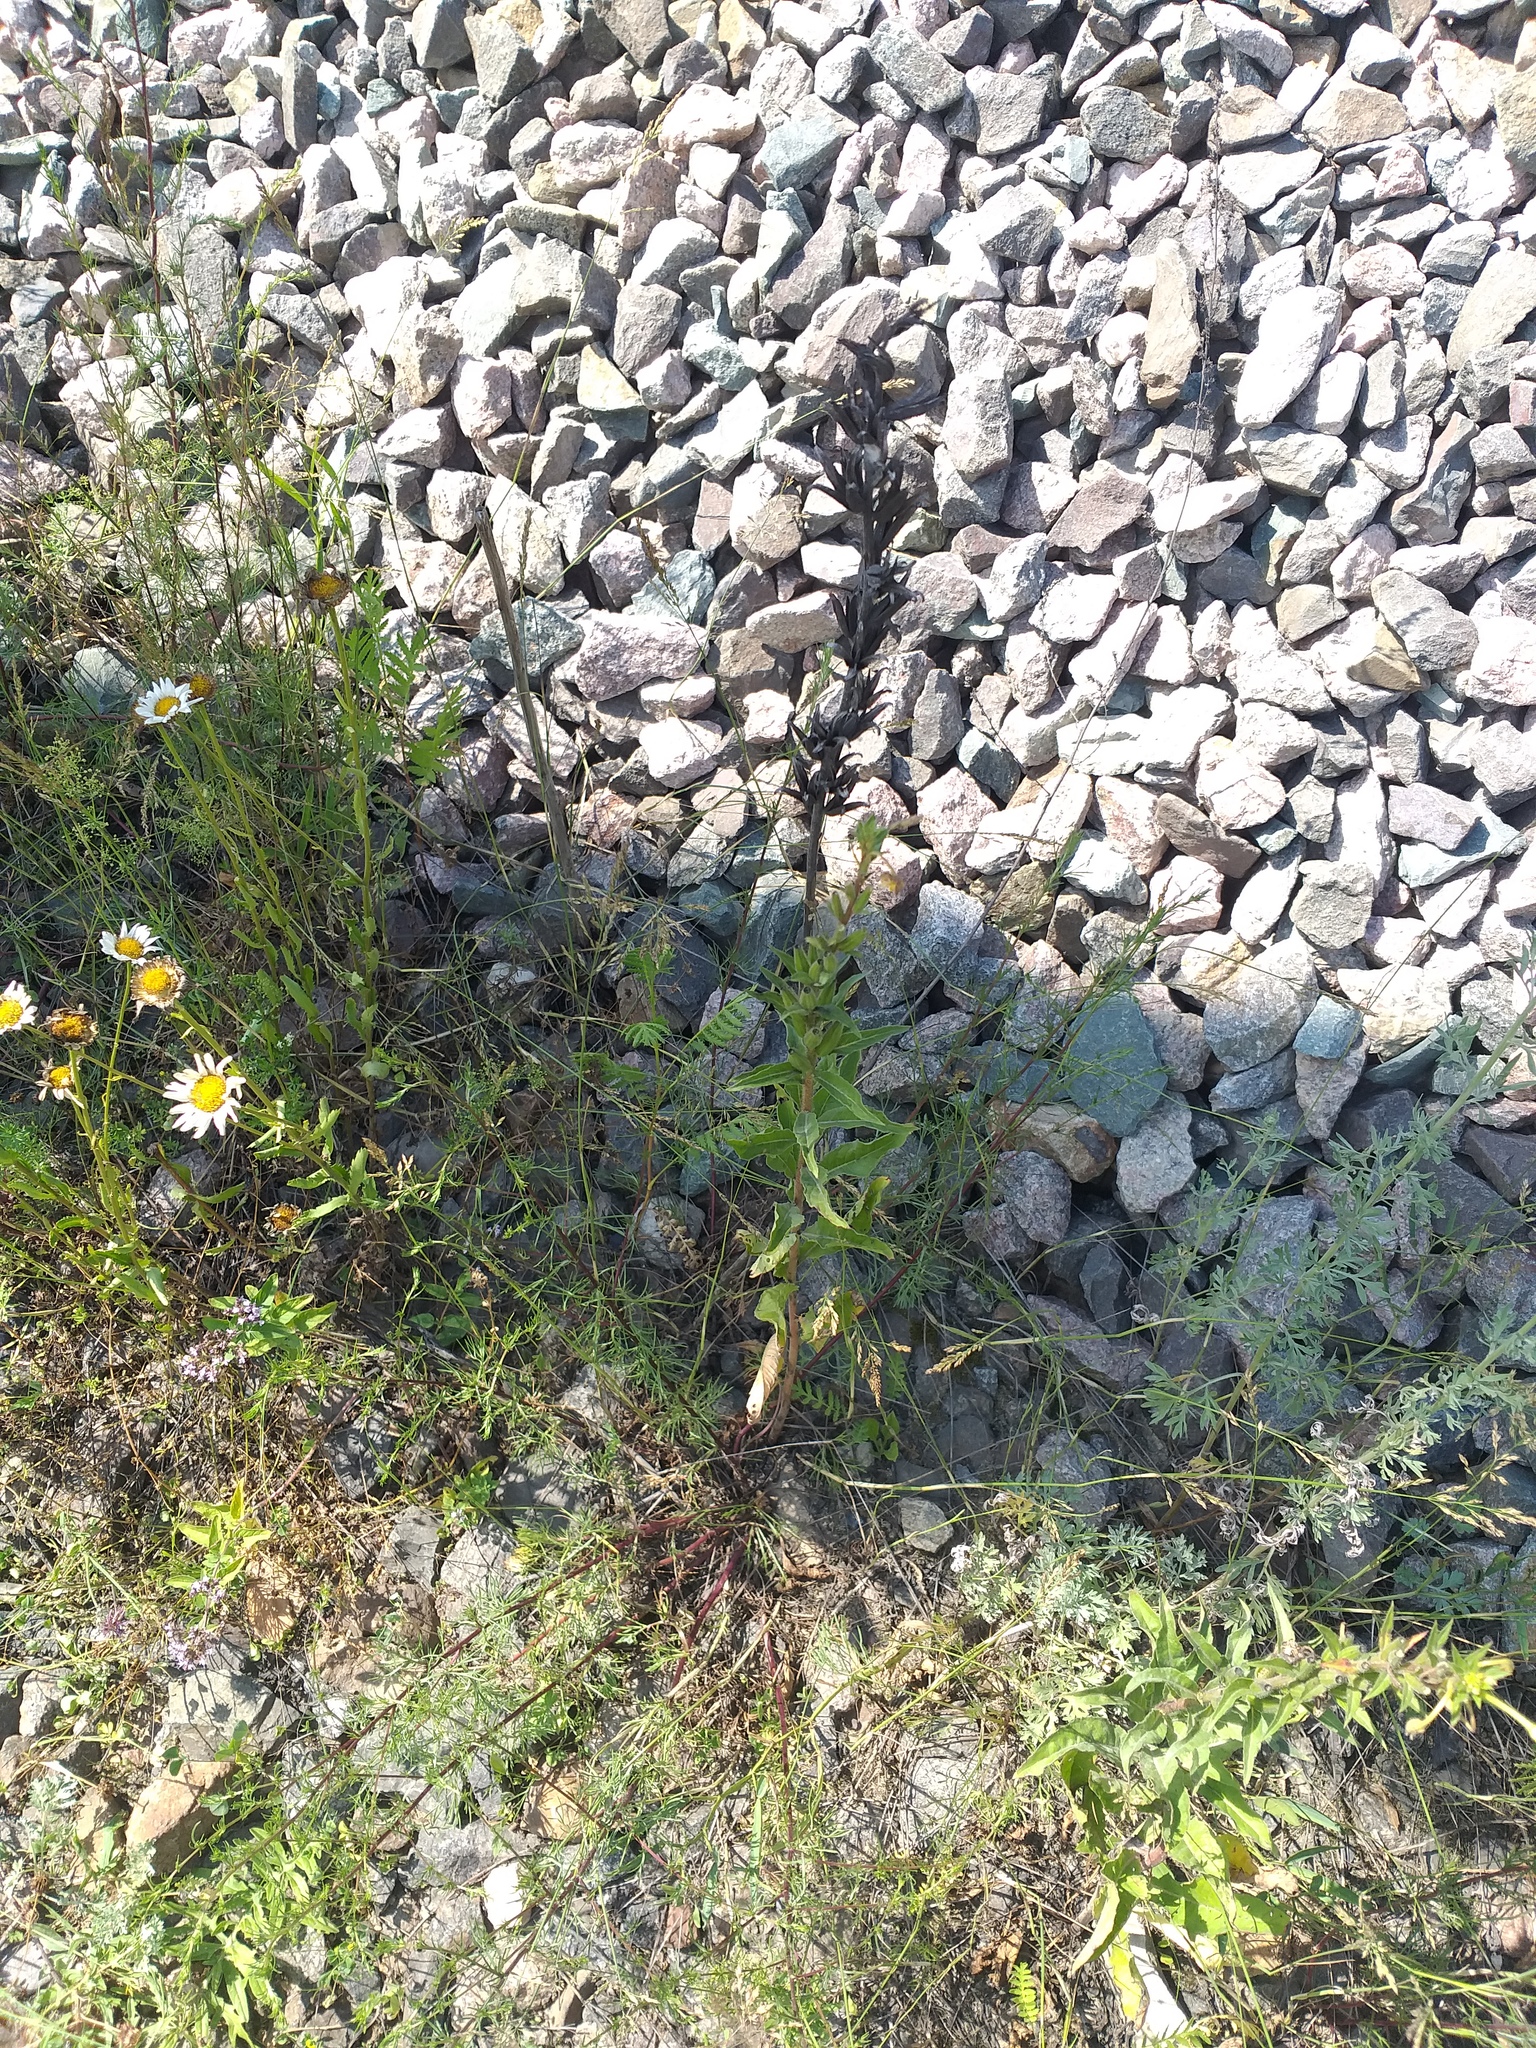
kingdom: Plantae
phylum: Tracheophyta
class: Magnoliopsida
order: Myrtales
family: Onagraceae
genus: Oenothera
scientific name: Oenothera rubricaulis
